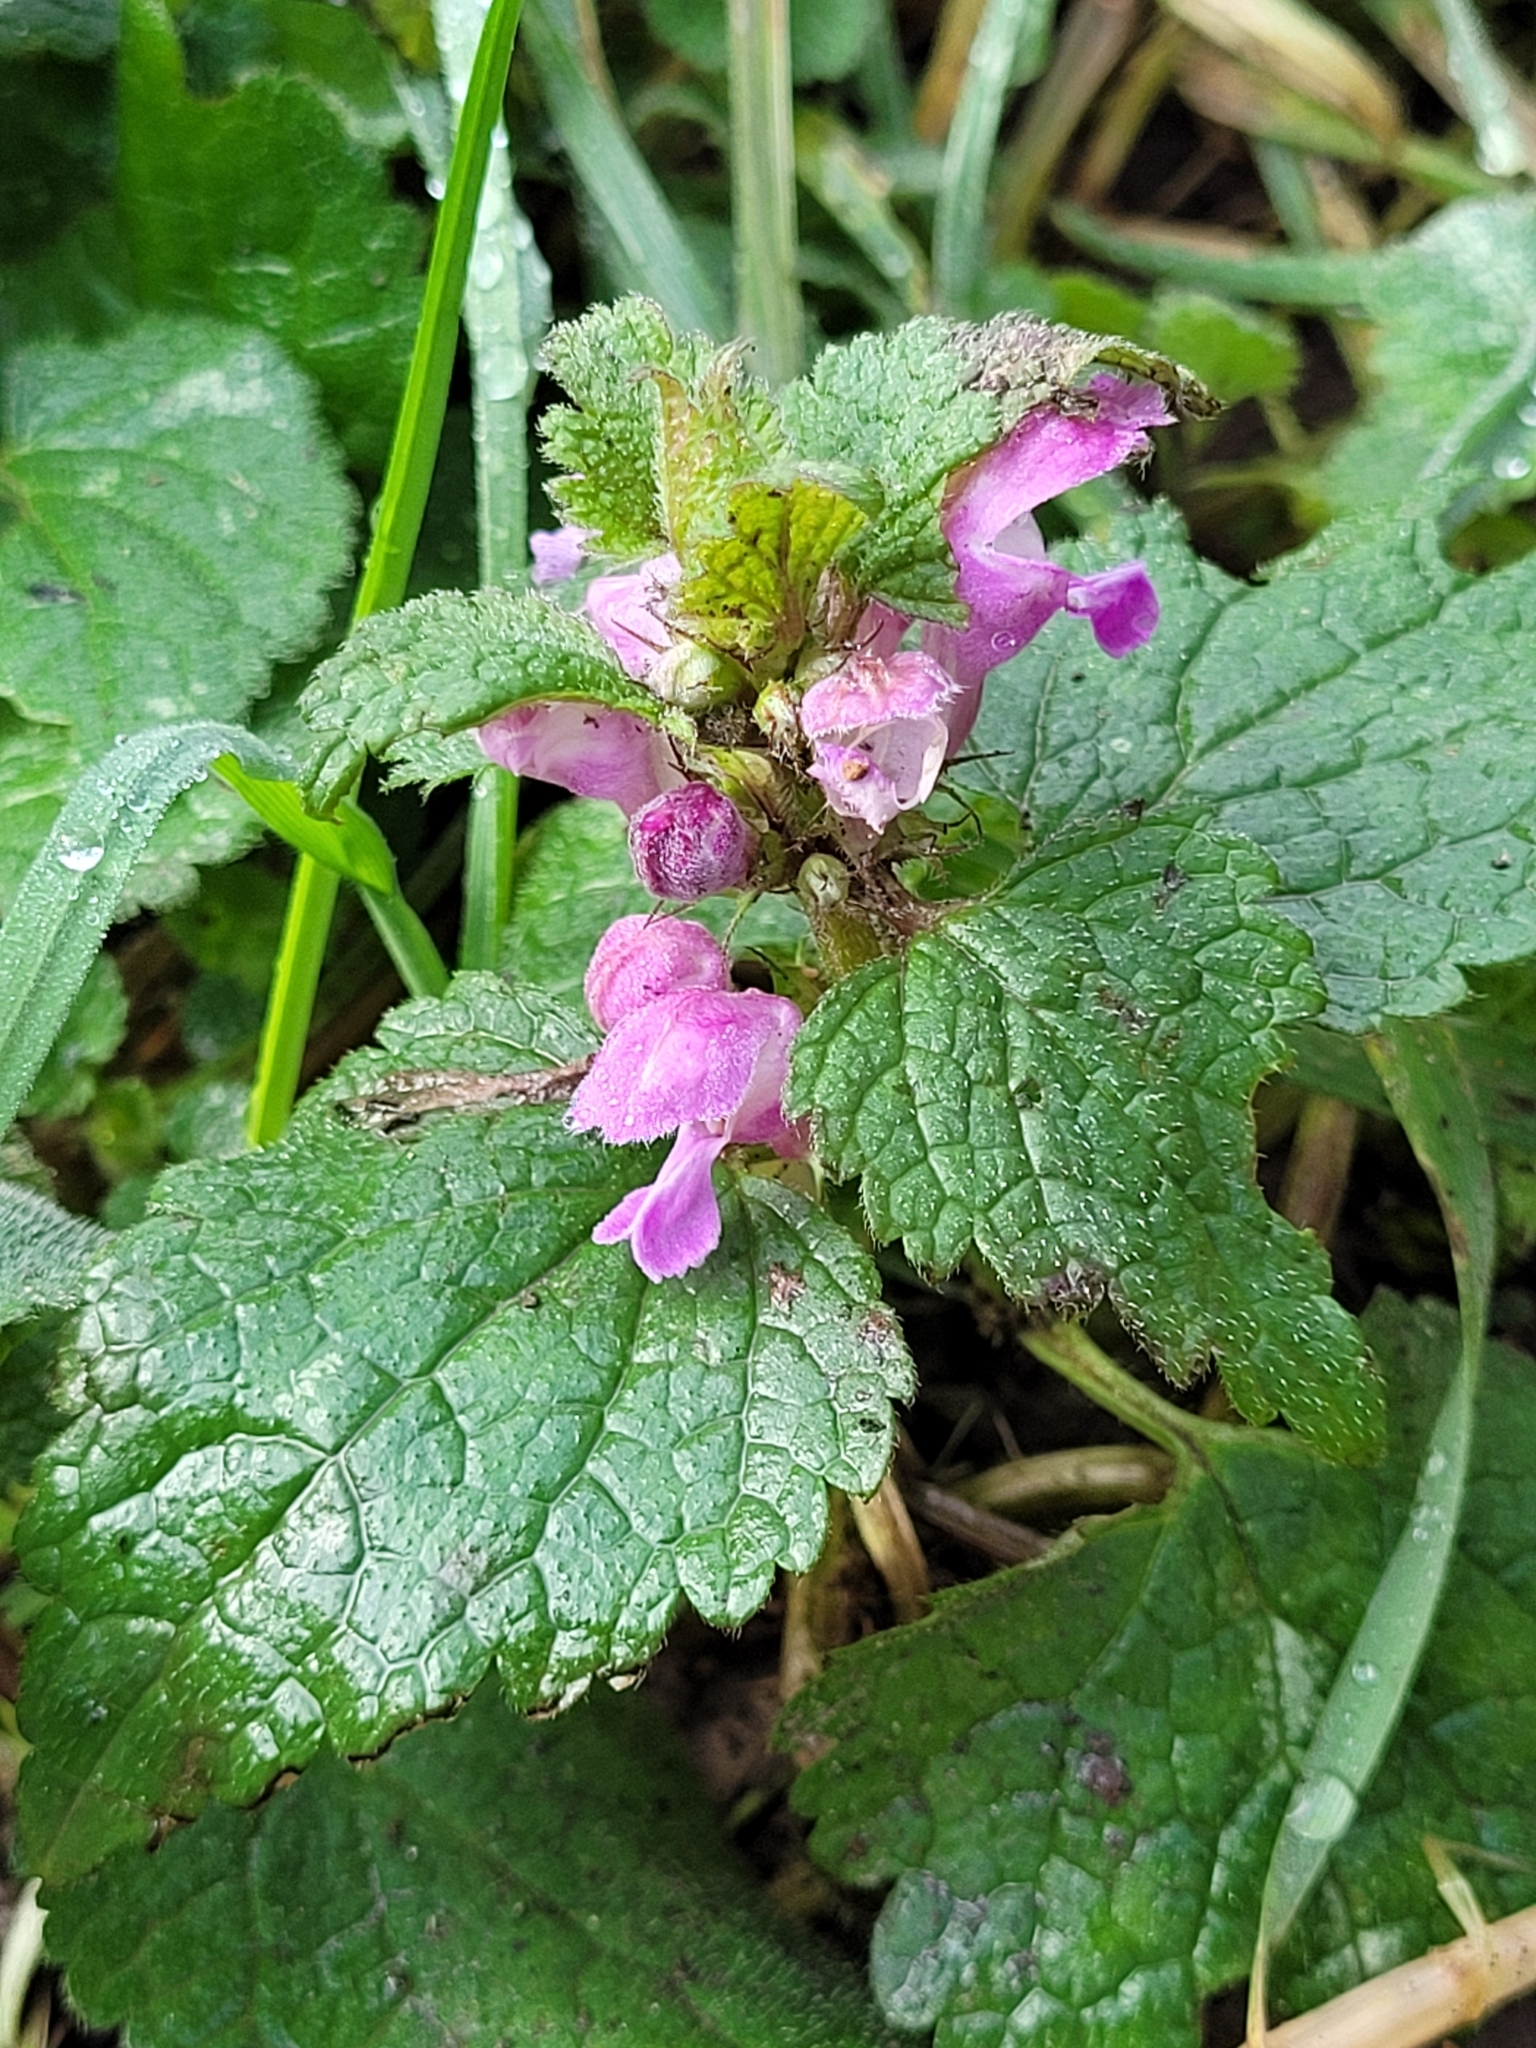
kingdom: Plantae
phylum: Tracheophyta
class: Magnoliopsida
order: Lamiales
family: Lamiaceae
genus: Lamium
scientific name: Lamium maculatum
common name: Spotted dead-nettle
